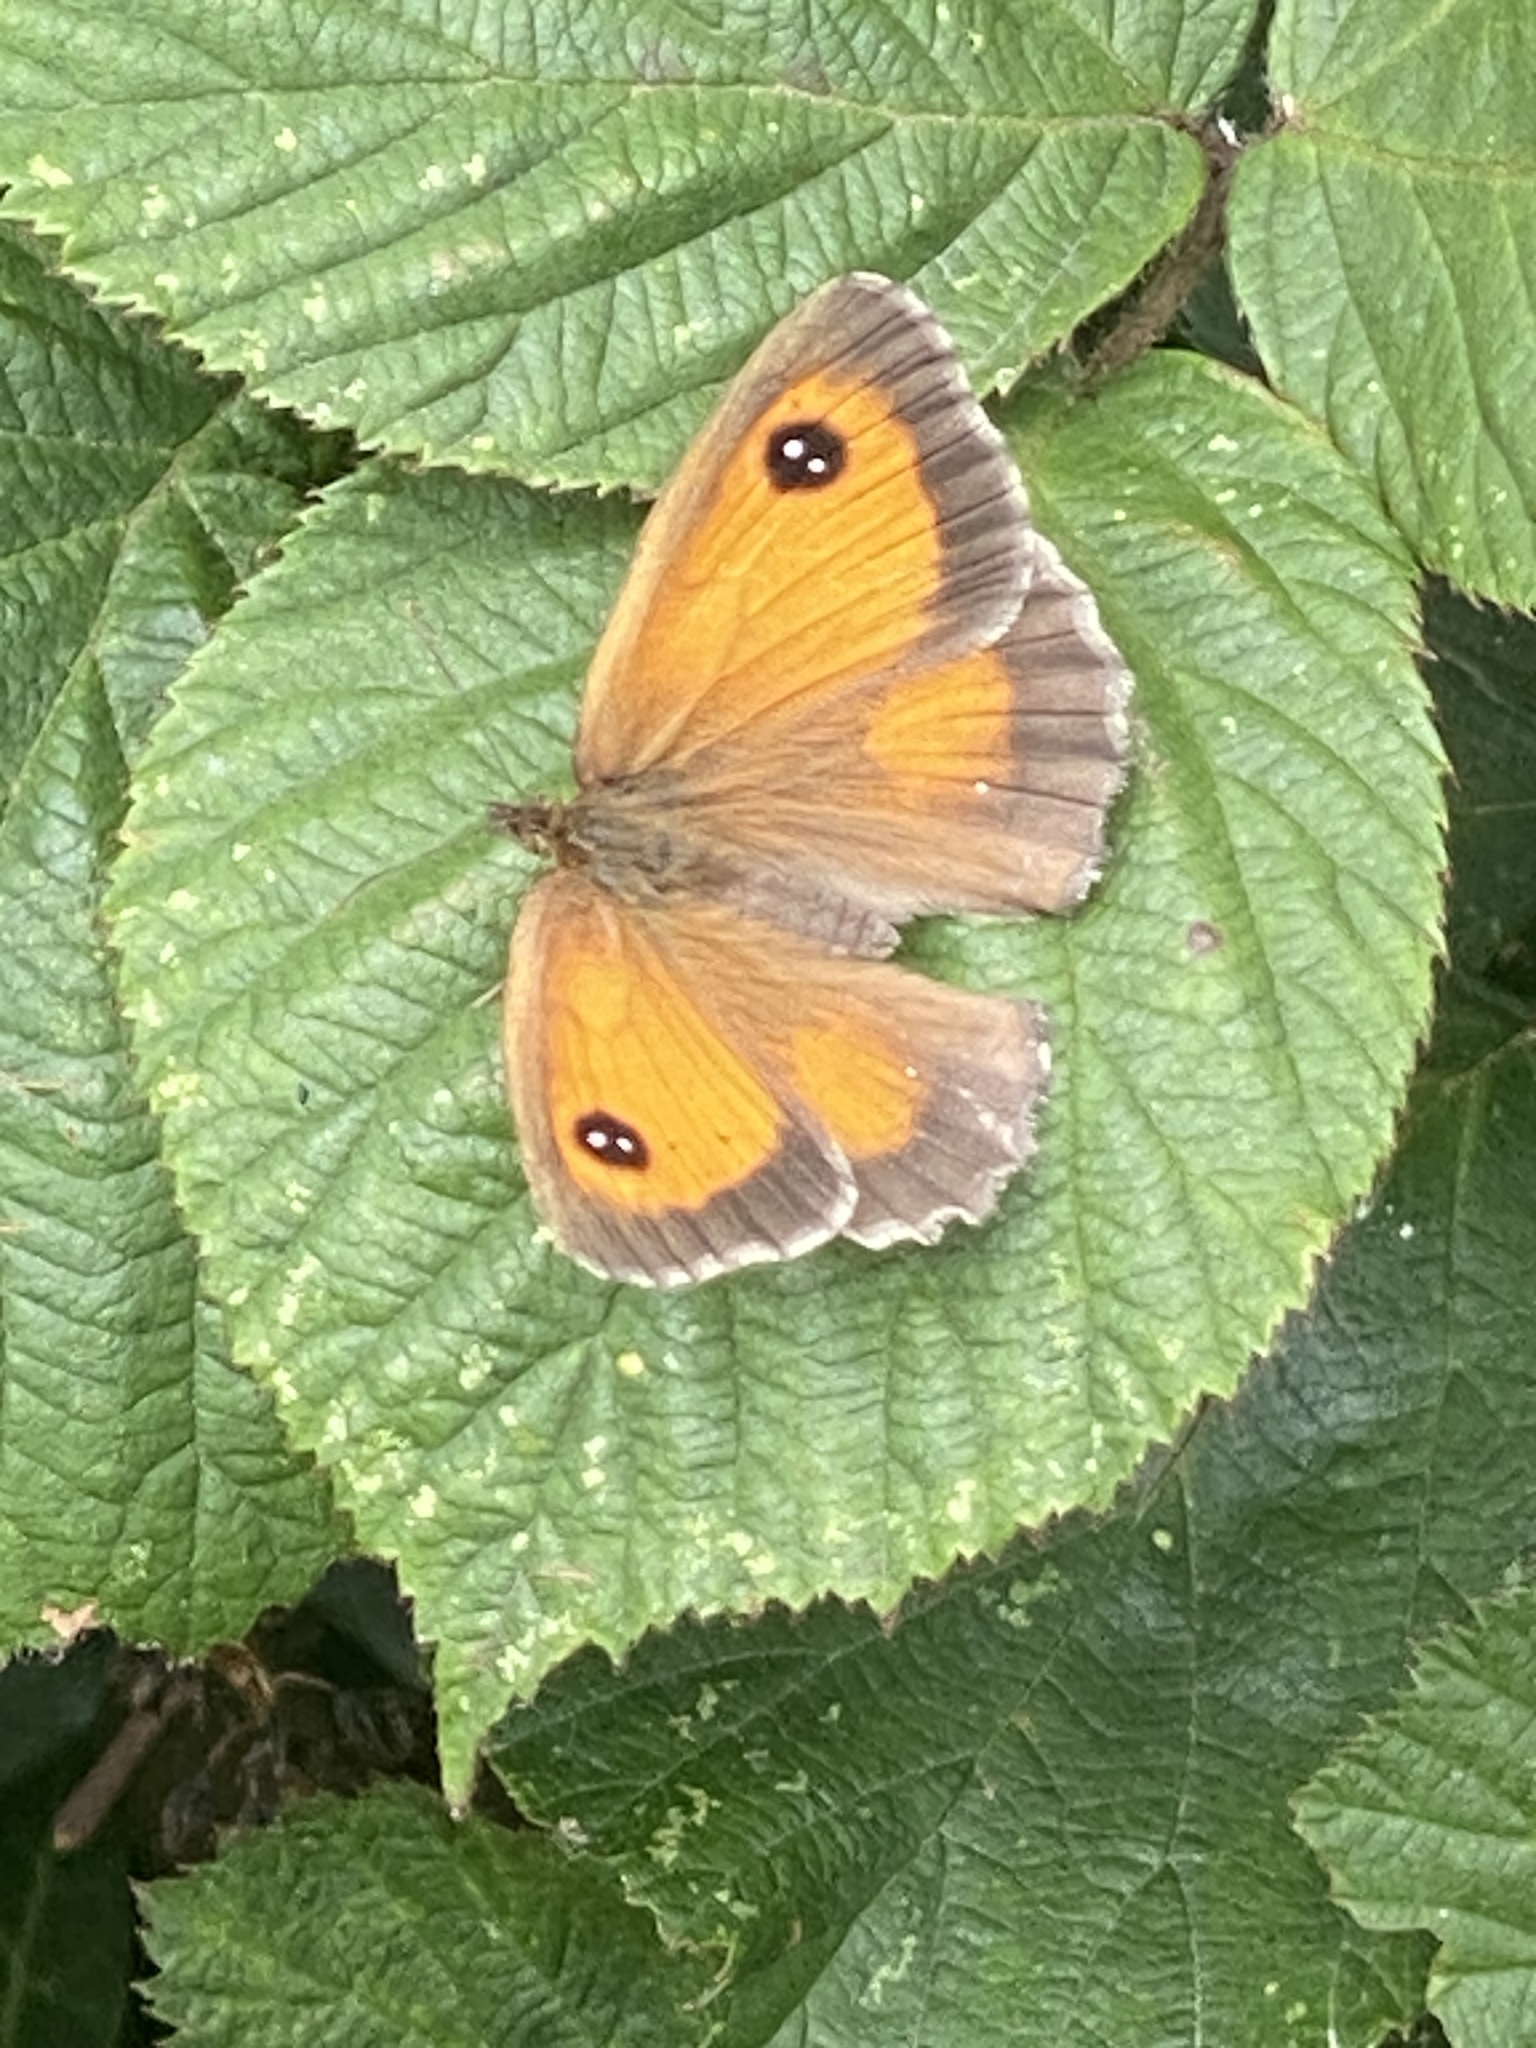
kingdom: Animalia
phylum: Arthropoda
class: Insecta
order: Lepidoptera
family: Nymphalidae
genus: Pyronia
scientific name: Pyronia tithonus
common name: Gatekeeper
